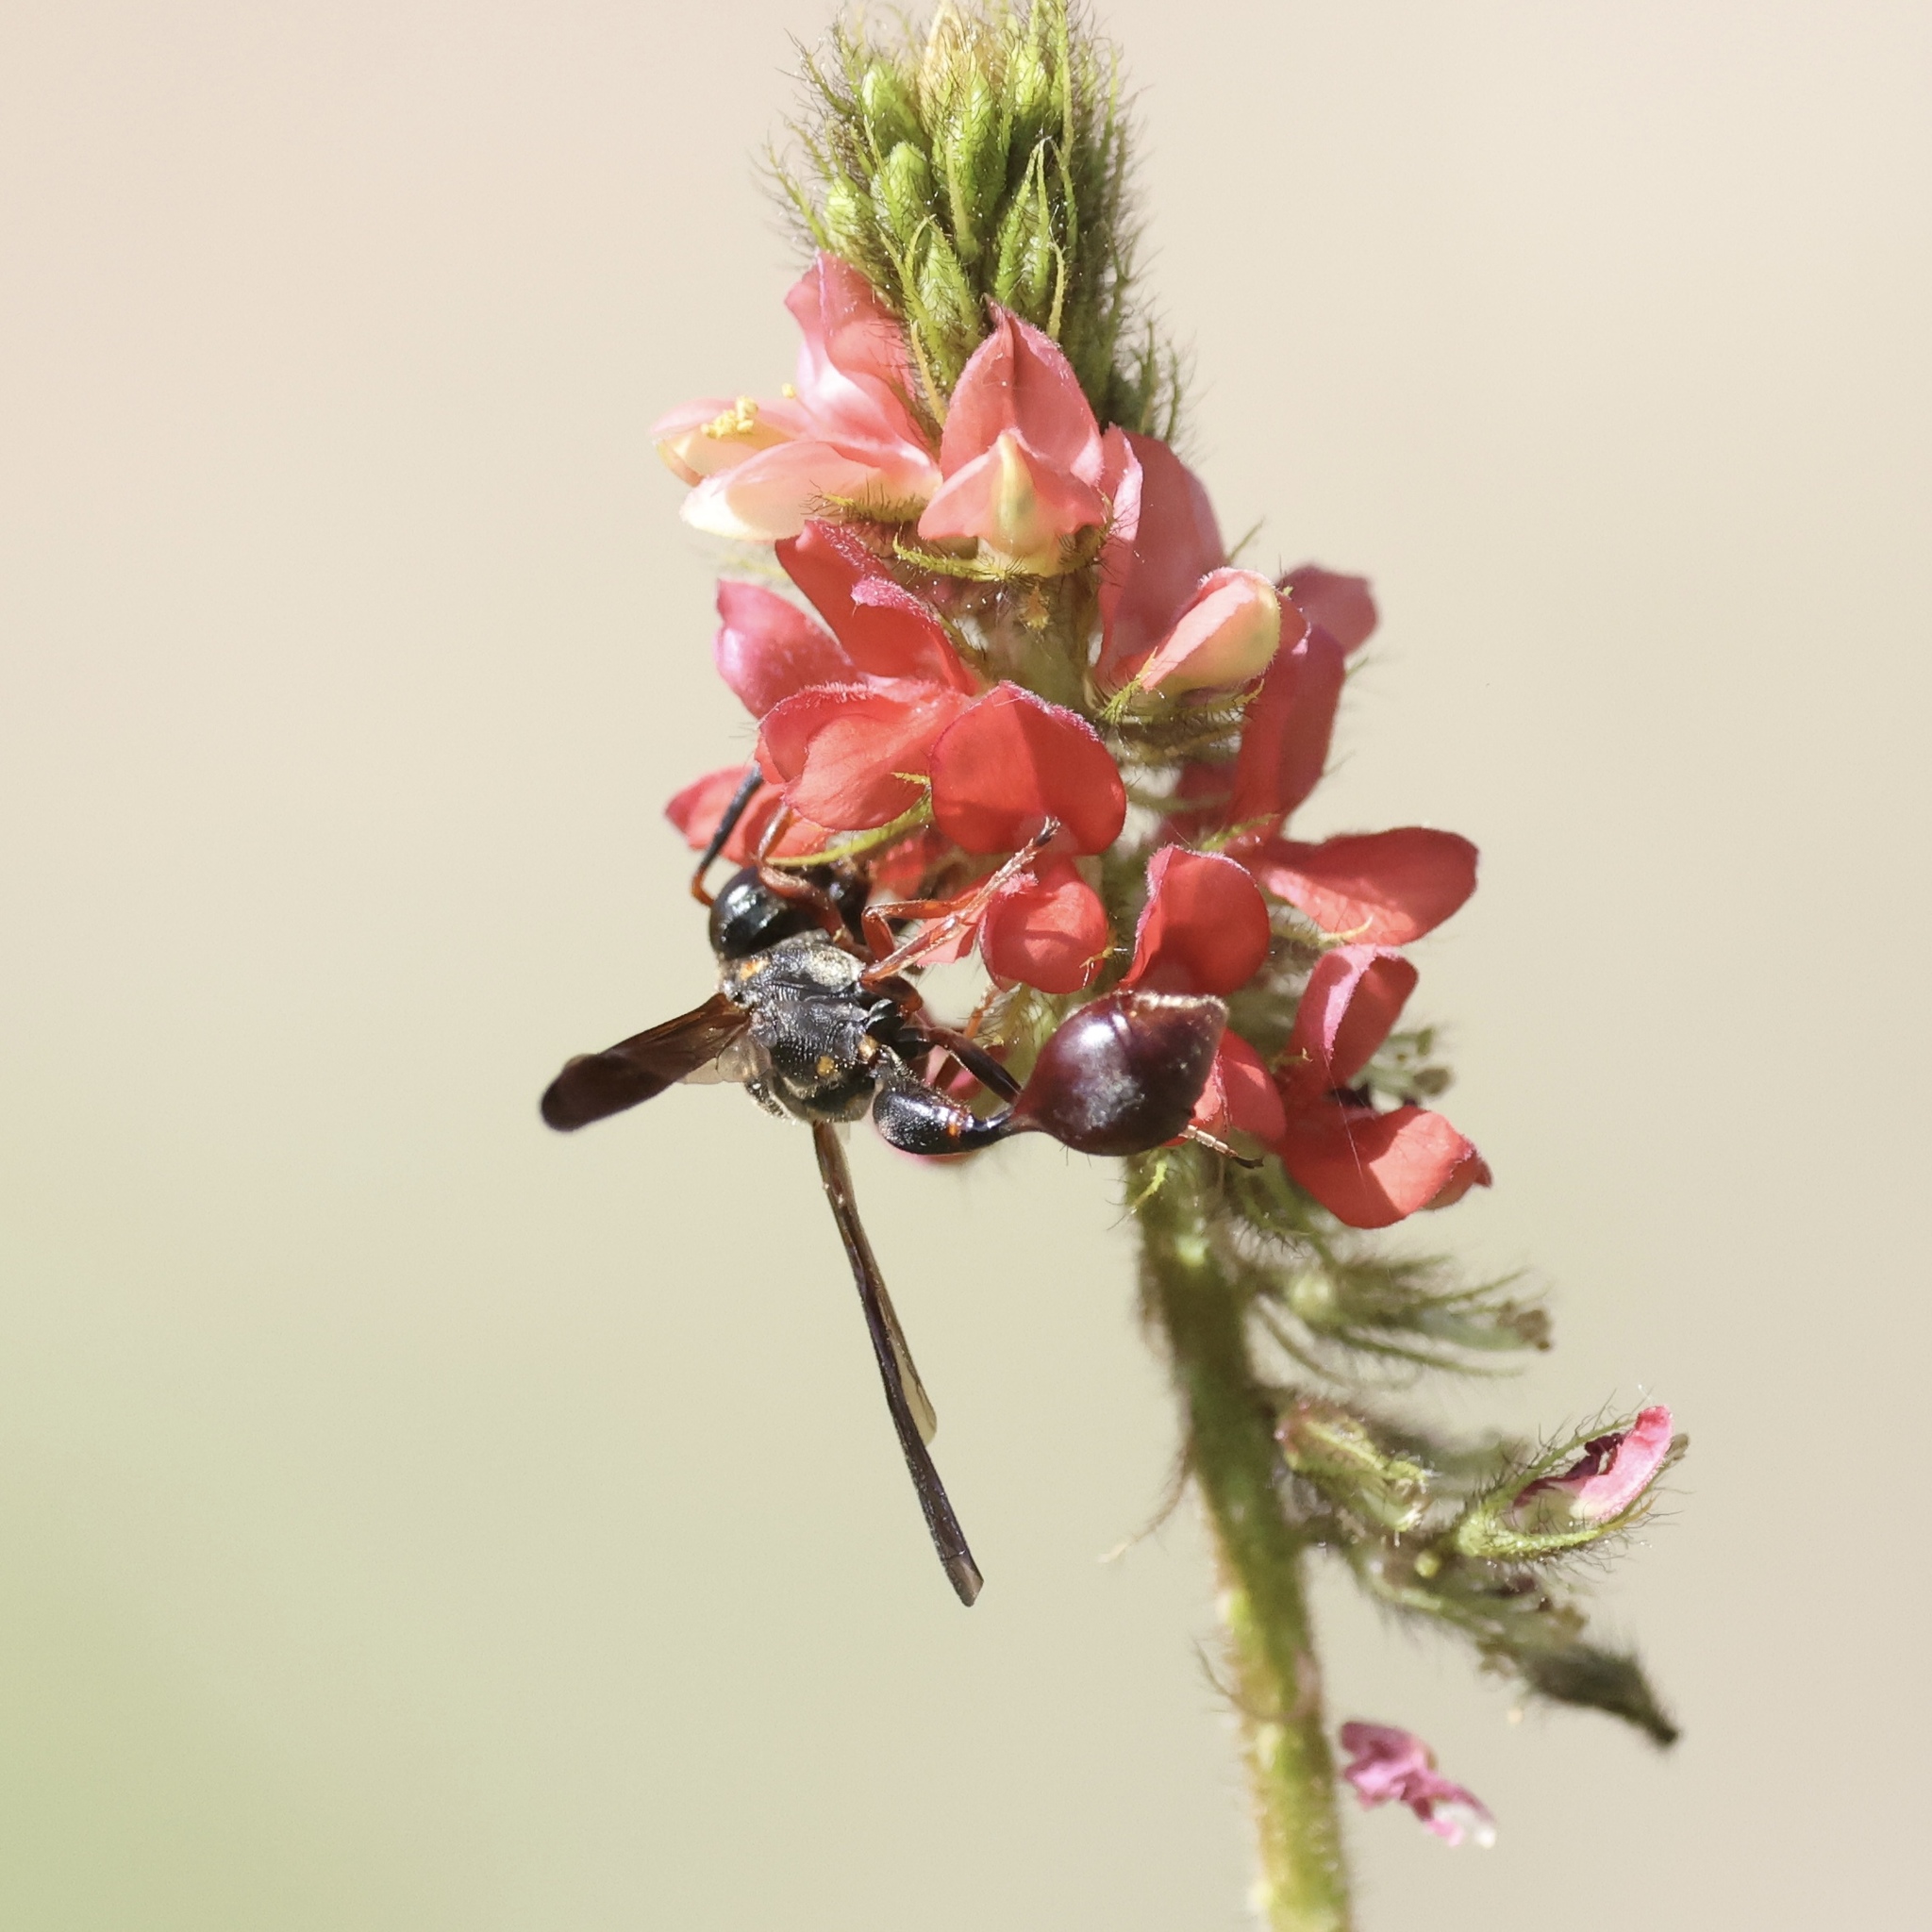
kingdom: Animalia
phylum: Arthropoda
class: Insecta
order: Hymenoptera
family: Eumenidae
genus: Zethus
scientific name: Zethus slossonae
